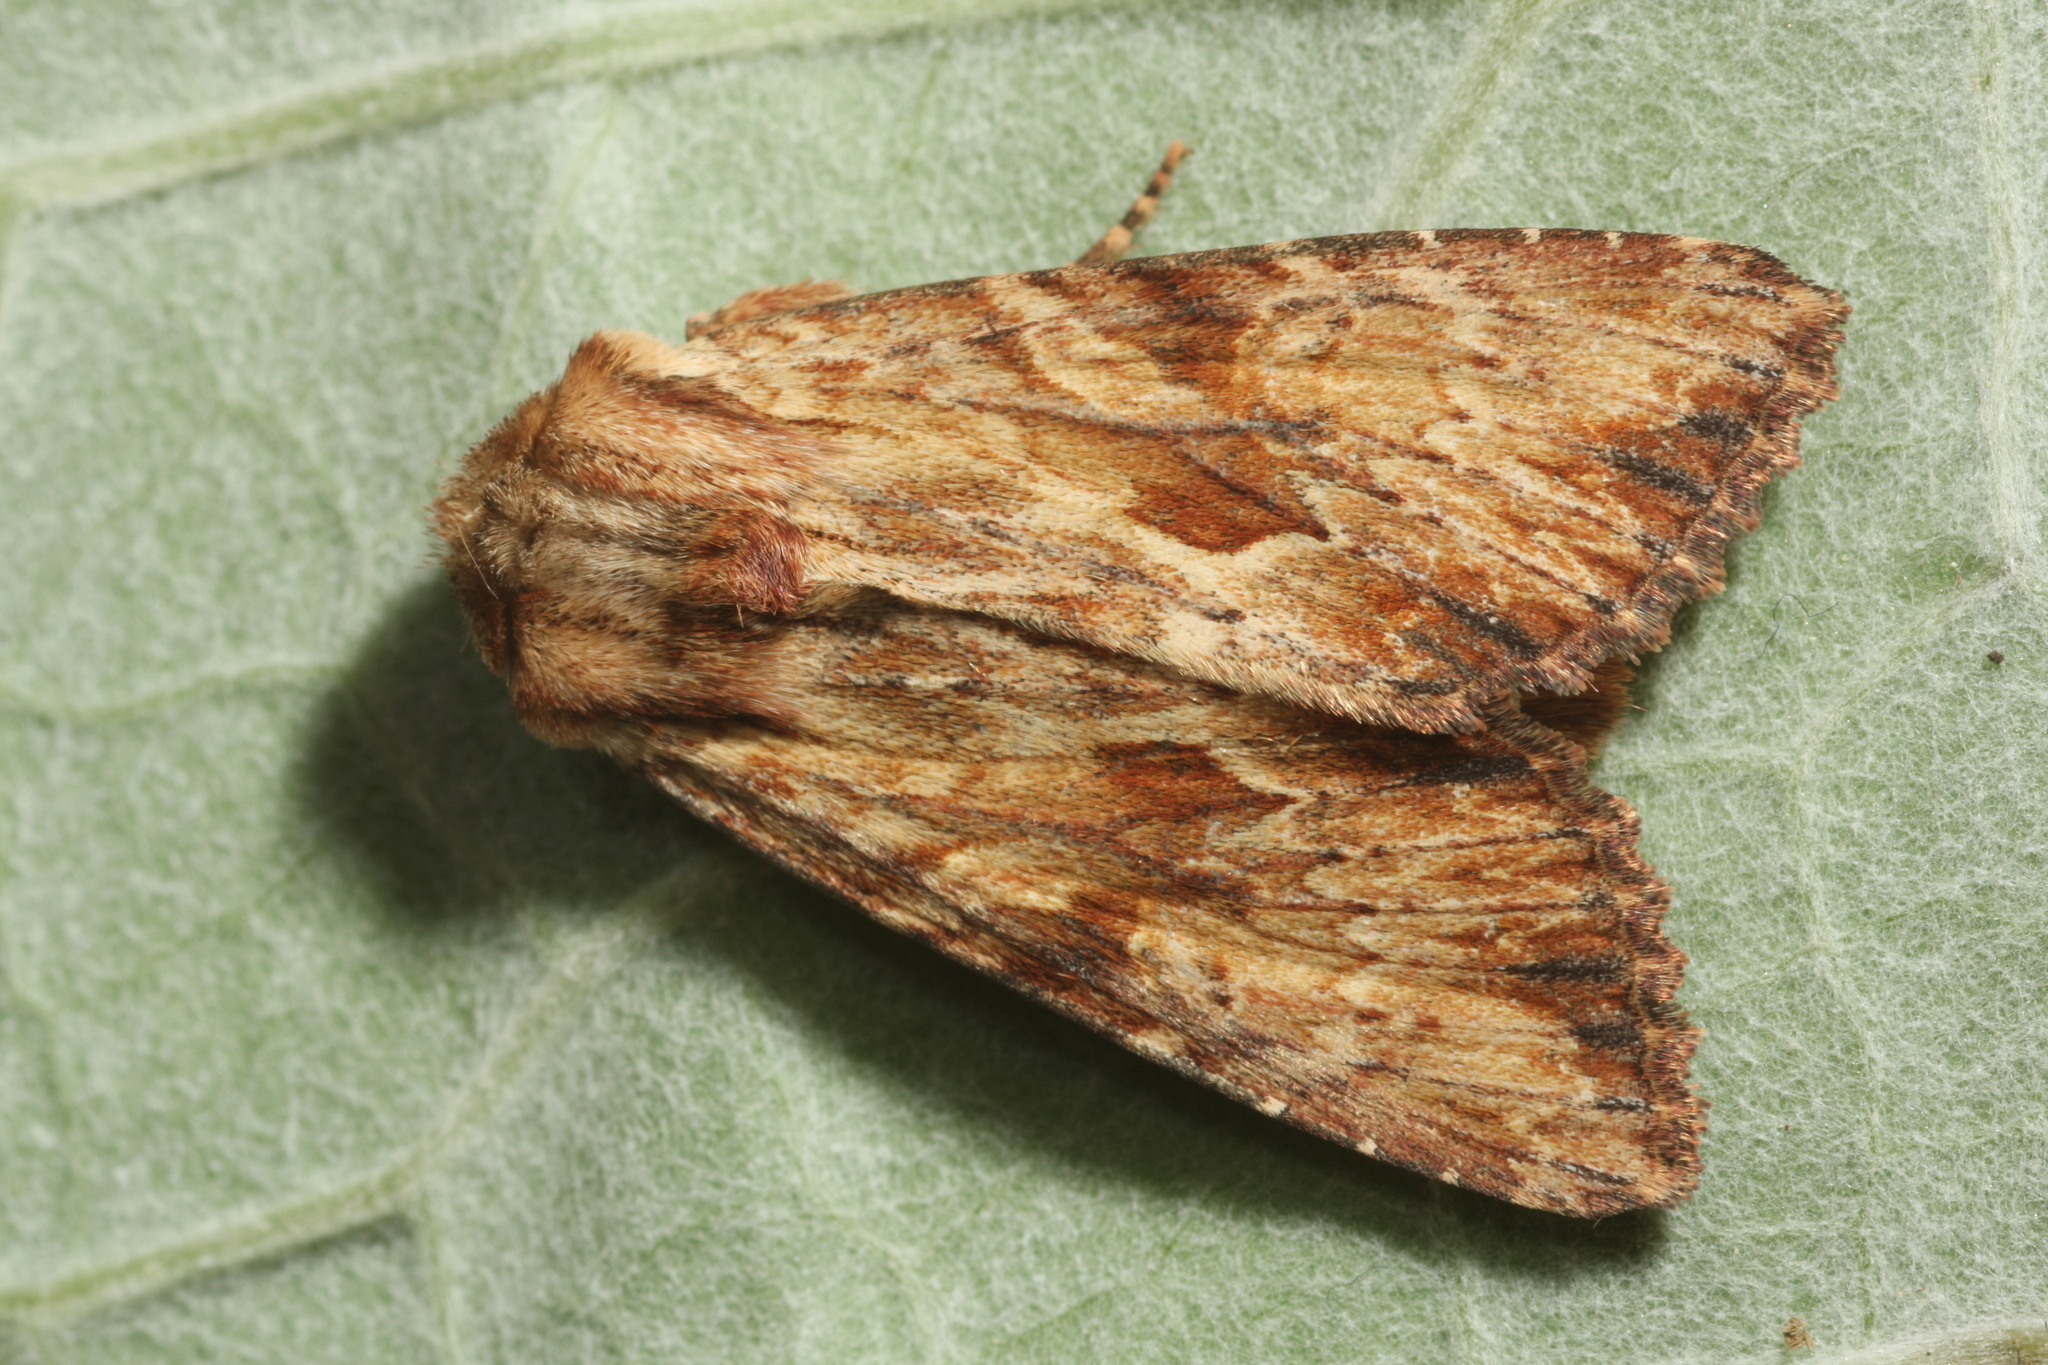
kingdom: Animalia
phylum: Arthropoda
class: Insecta
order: Lepidoptera
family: Noctuidae
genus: Apamea
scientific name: Apamea sublustris
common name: Reddish light arches
